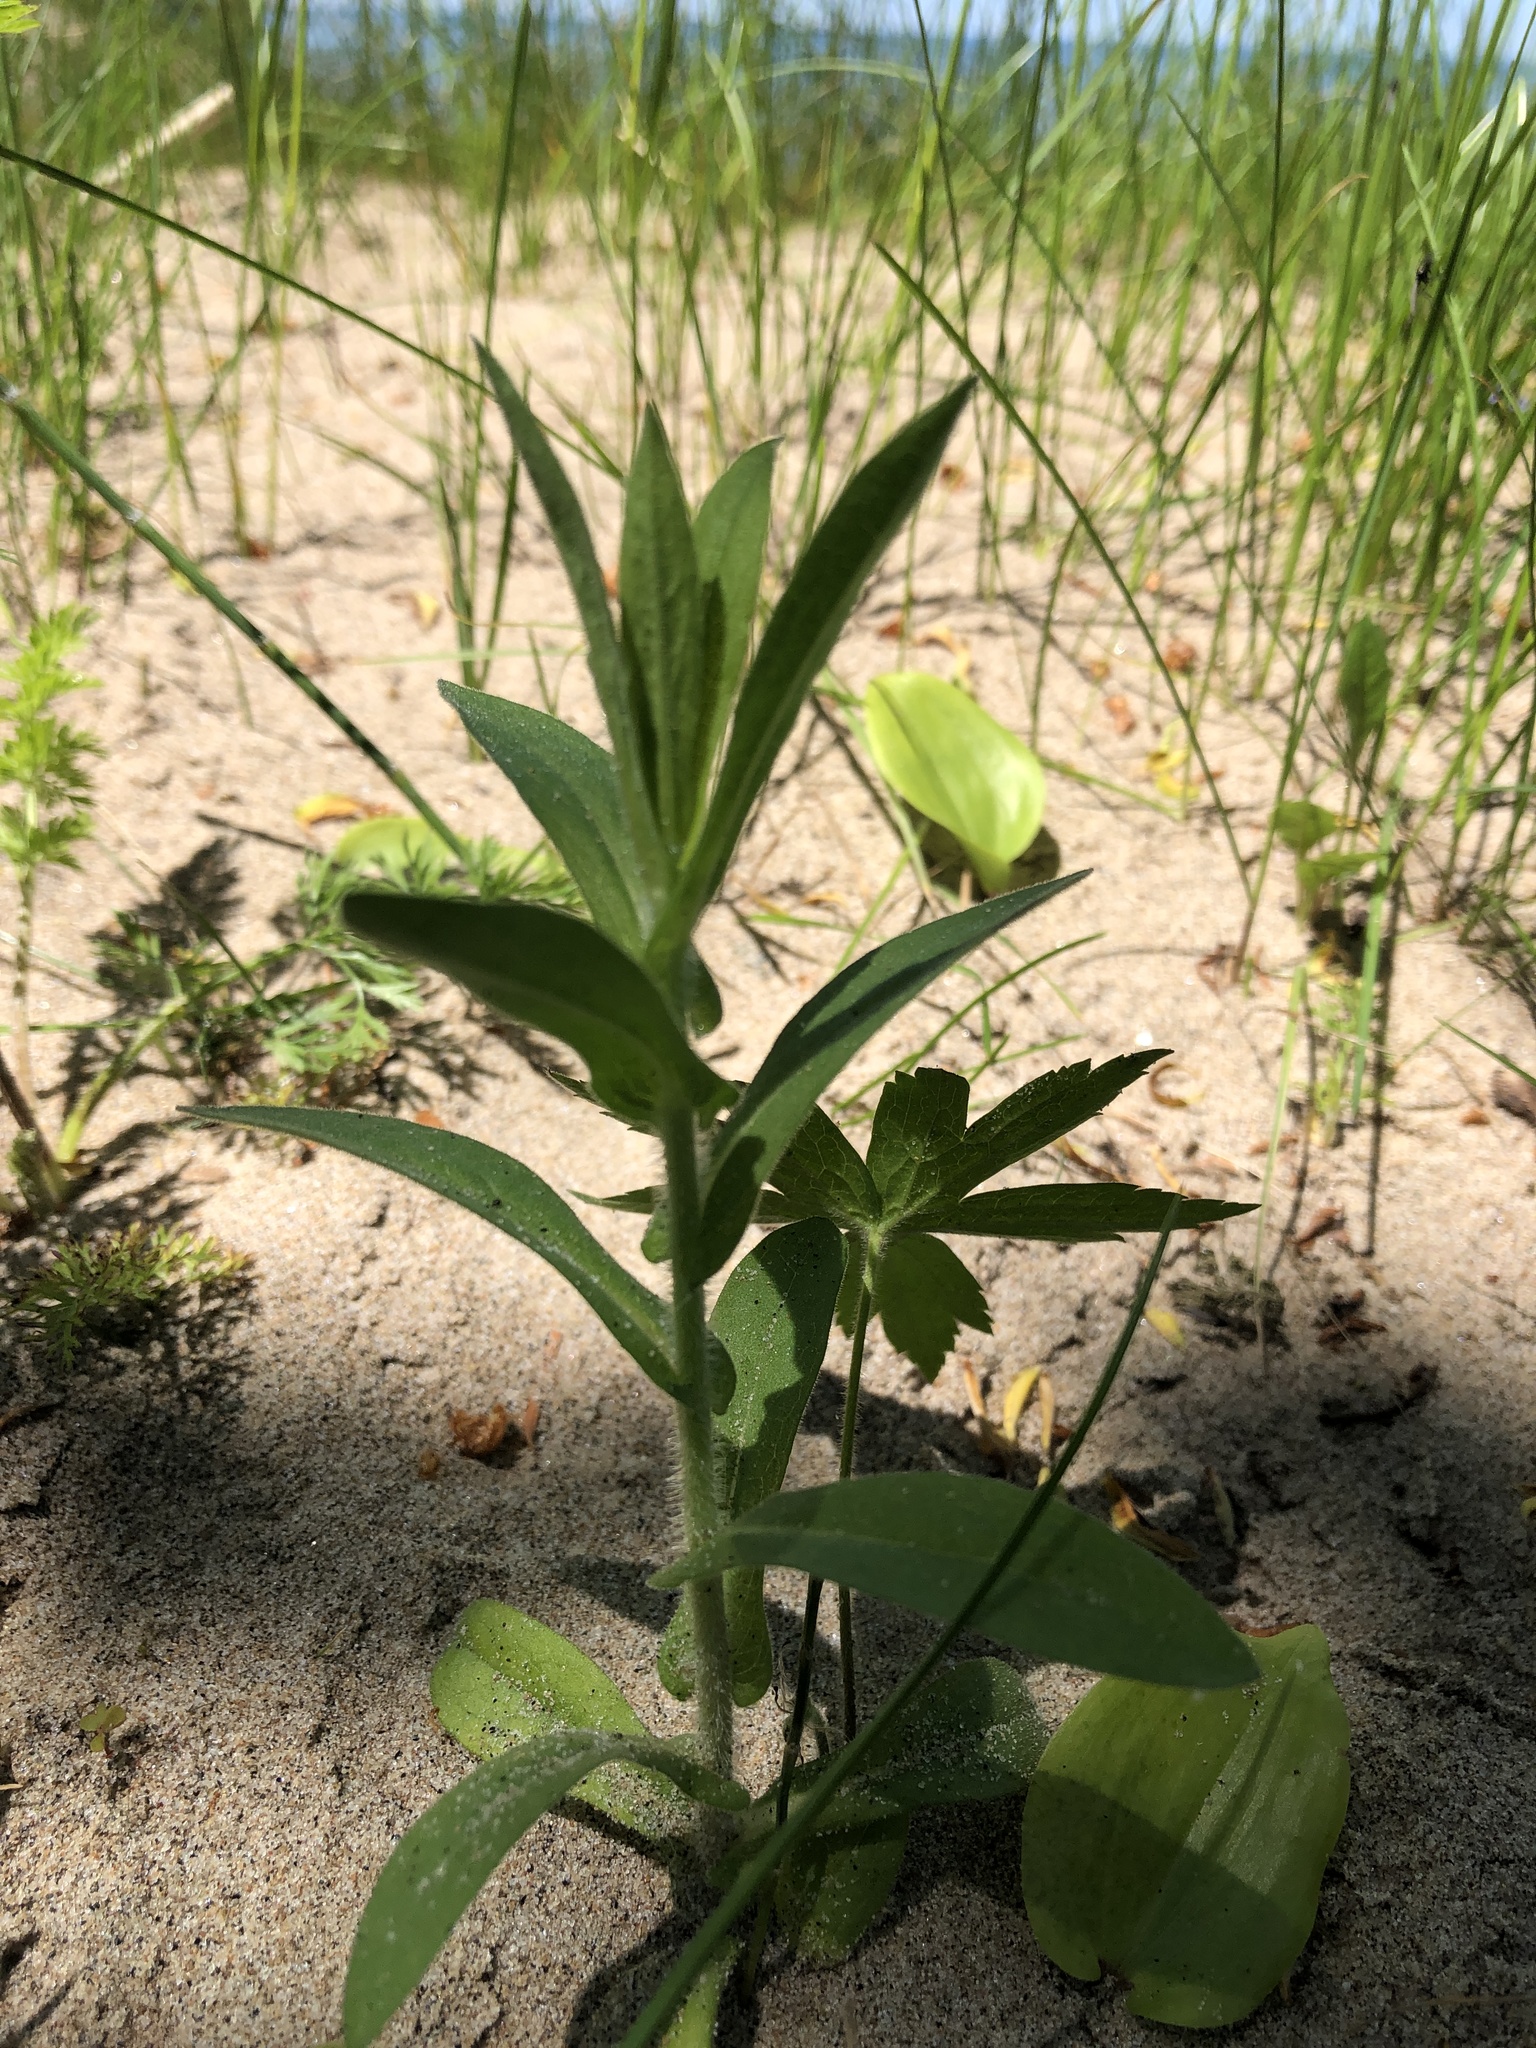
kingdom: Plantae
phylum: Tracheophyta
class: Magnoliopsida
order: Asterales
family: Asteraceae
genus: Symphyotrichum
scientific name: Symphyotrichum novae-angliae
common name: Michaelmas daisy
